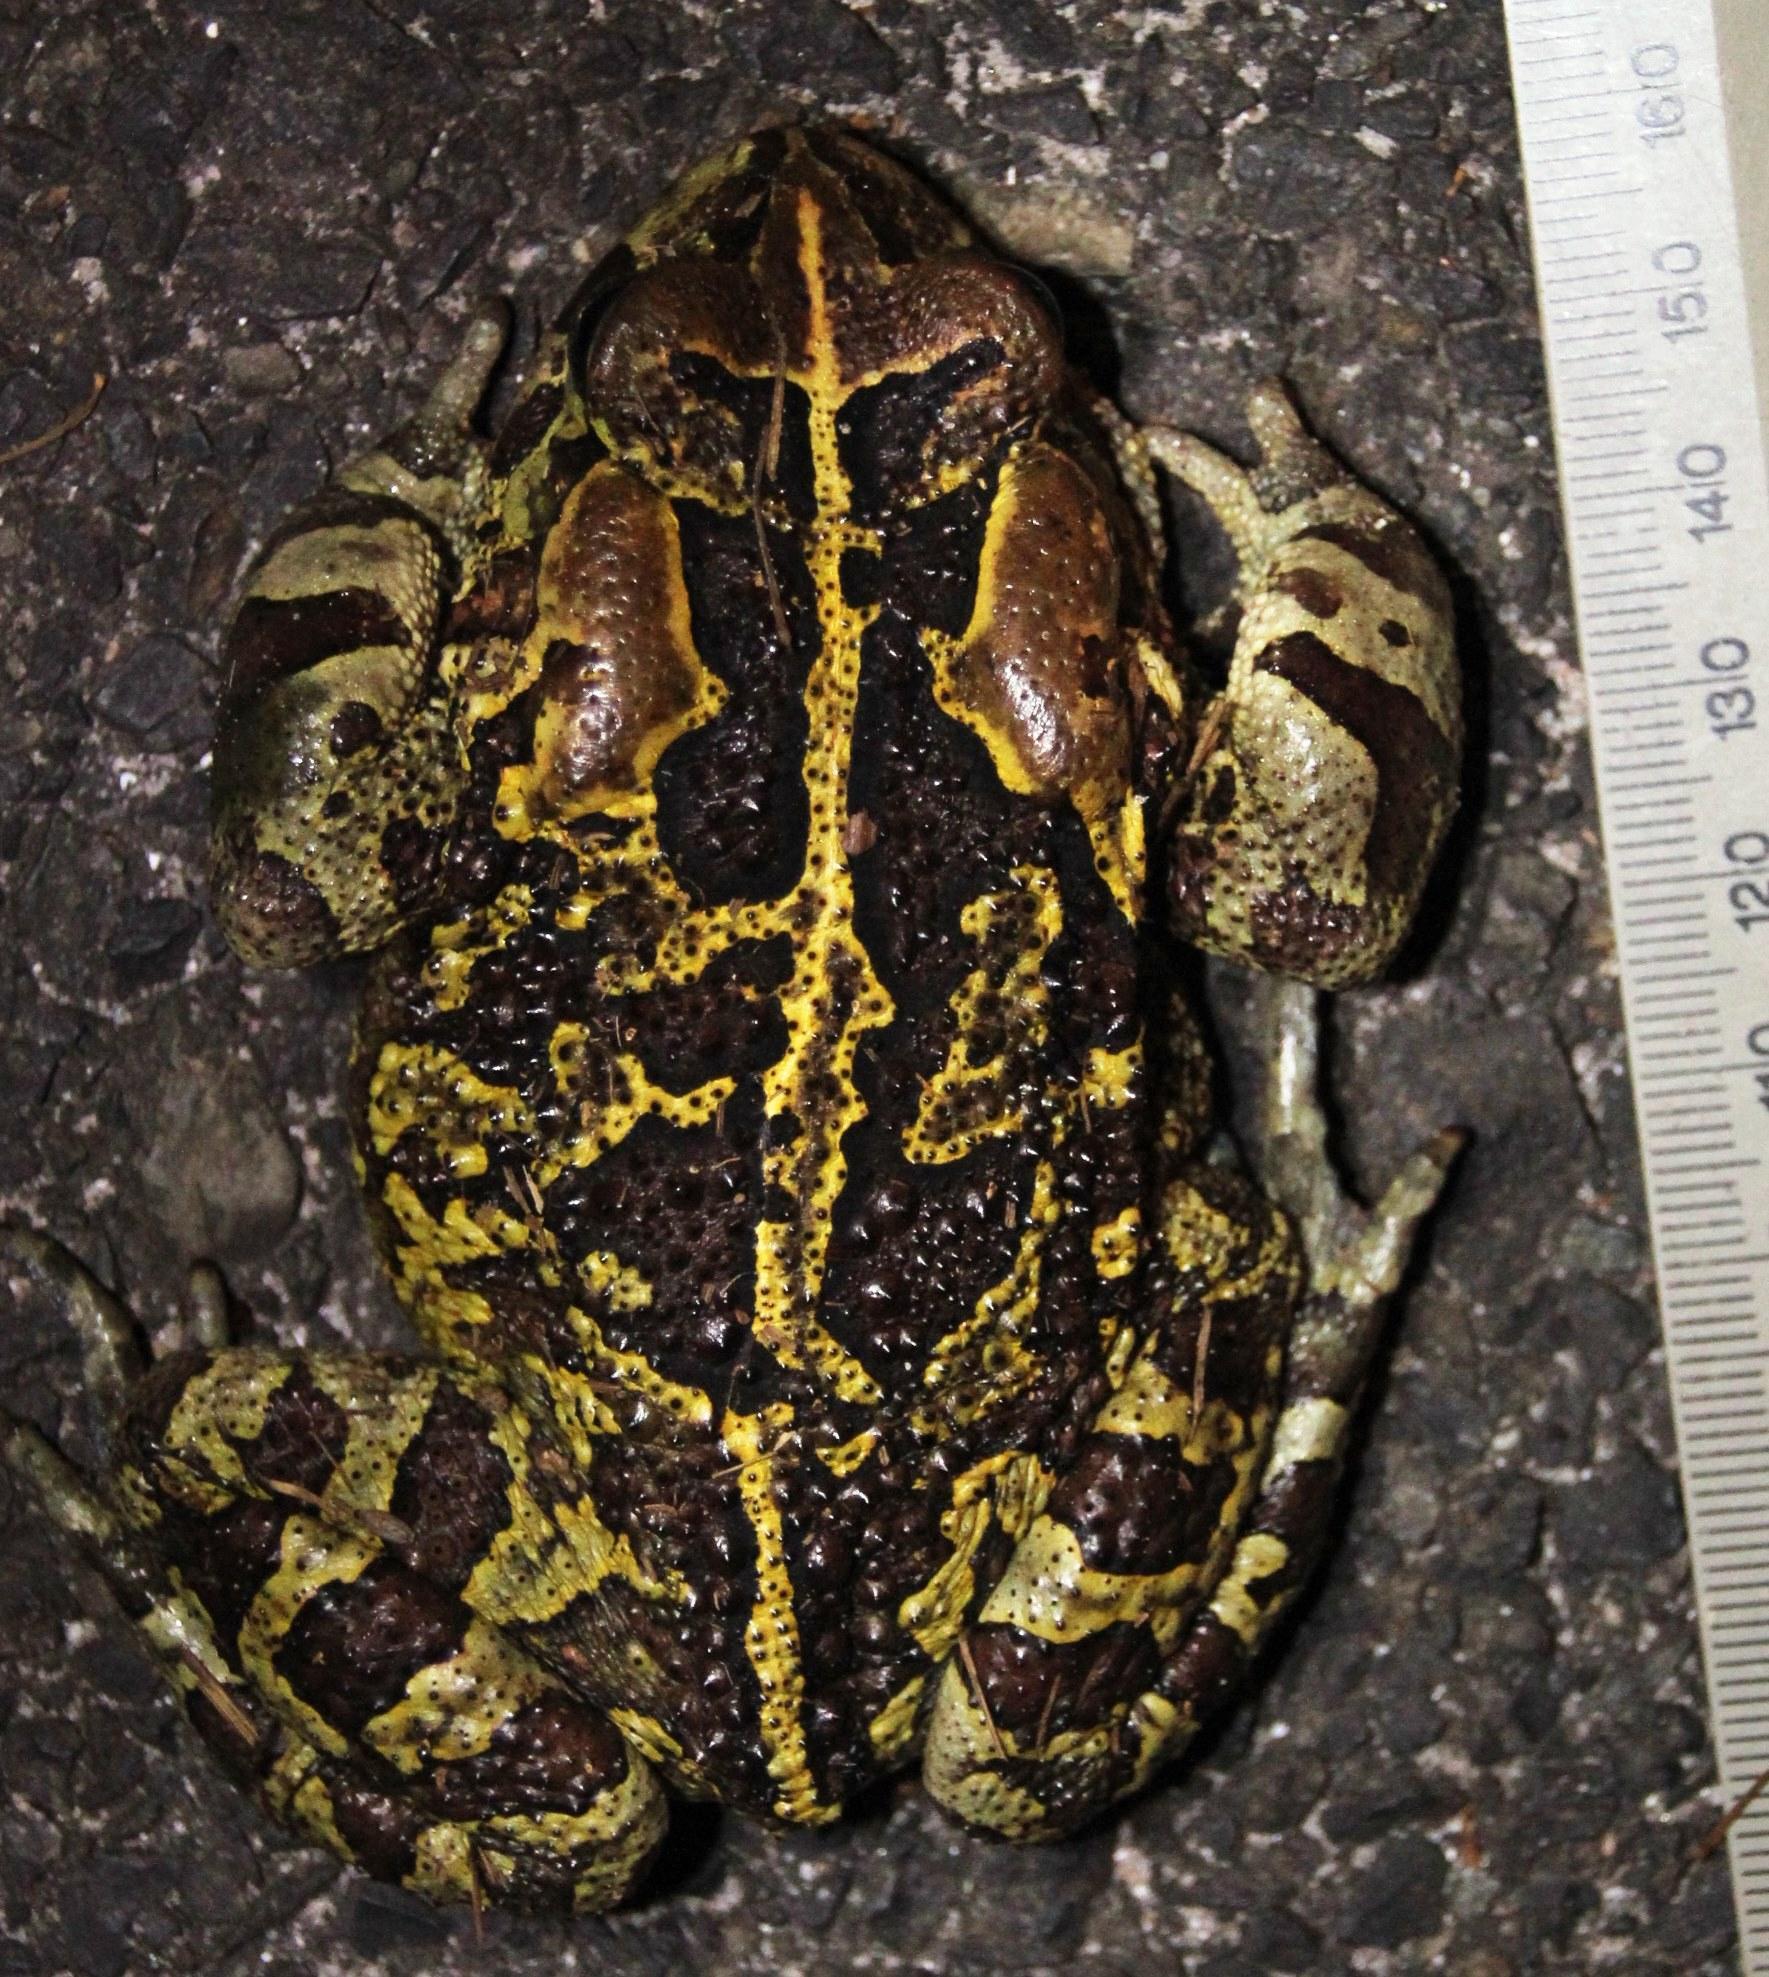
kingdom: Animalia
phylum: Chordata
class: Amphibia
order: Anura
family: Bufonidae
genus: Sclerophrys
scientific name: Sclerophrys pantherina
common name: Panther toad
